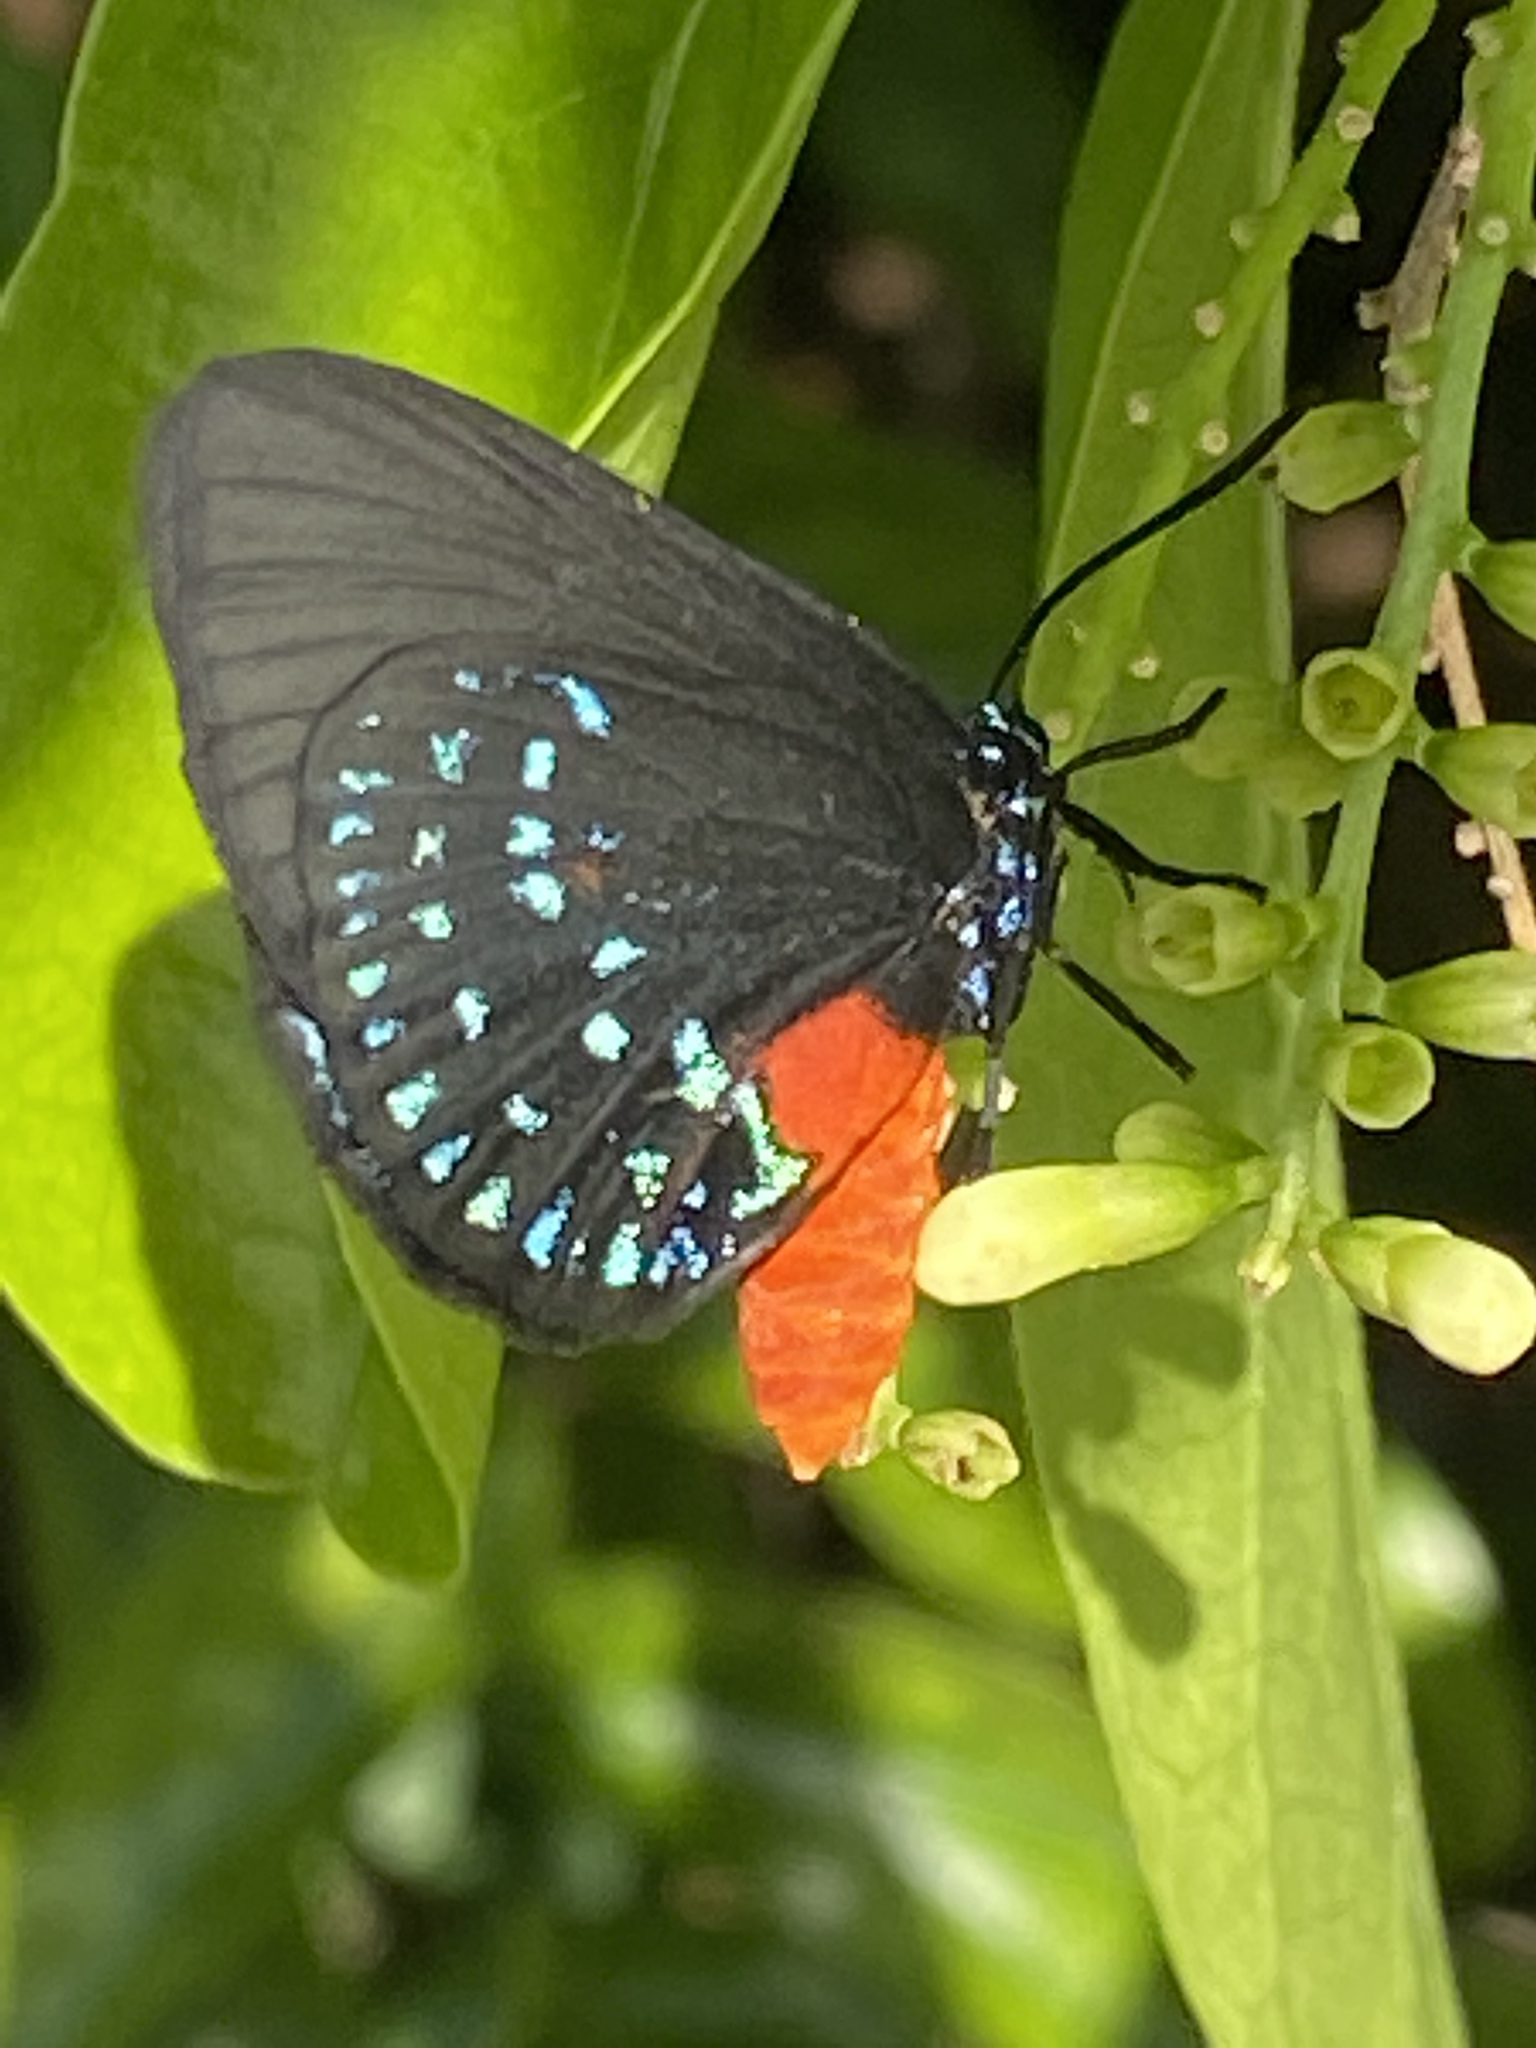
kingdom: Animalia
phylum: Arthropoda
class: Insecta
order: Lepidoptera
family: Lycaenidae
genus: Eumaeus
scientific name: Eumaeus atala
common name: Atala
